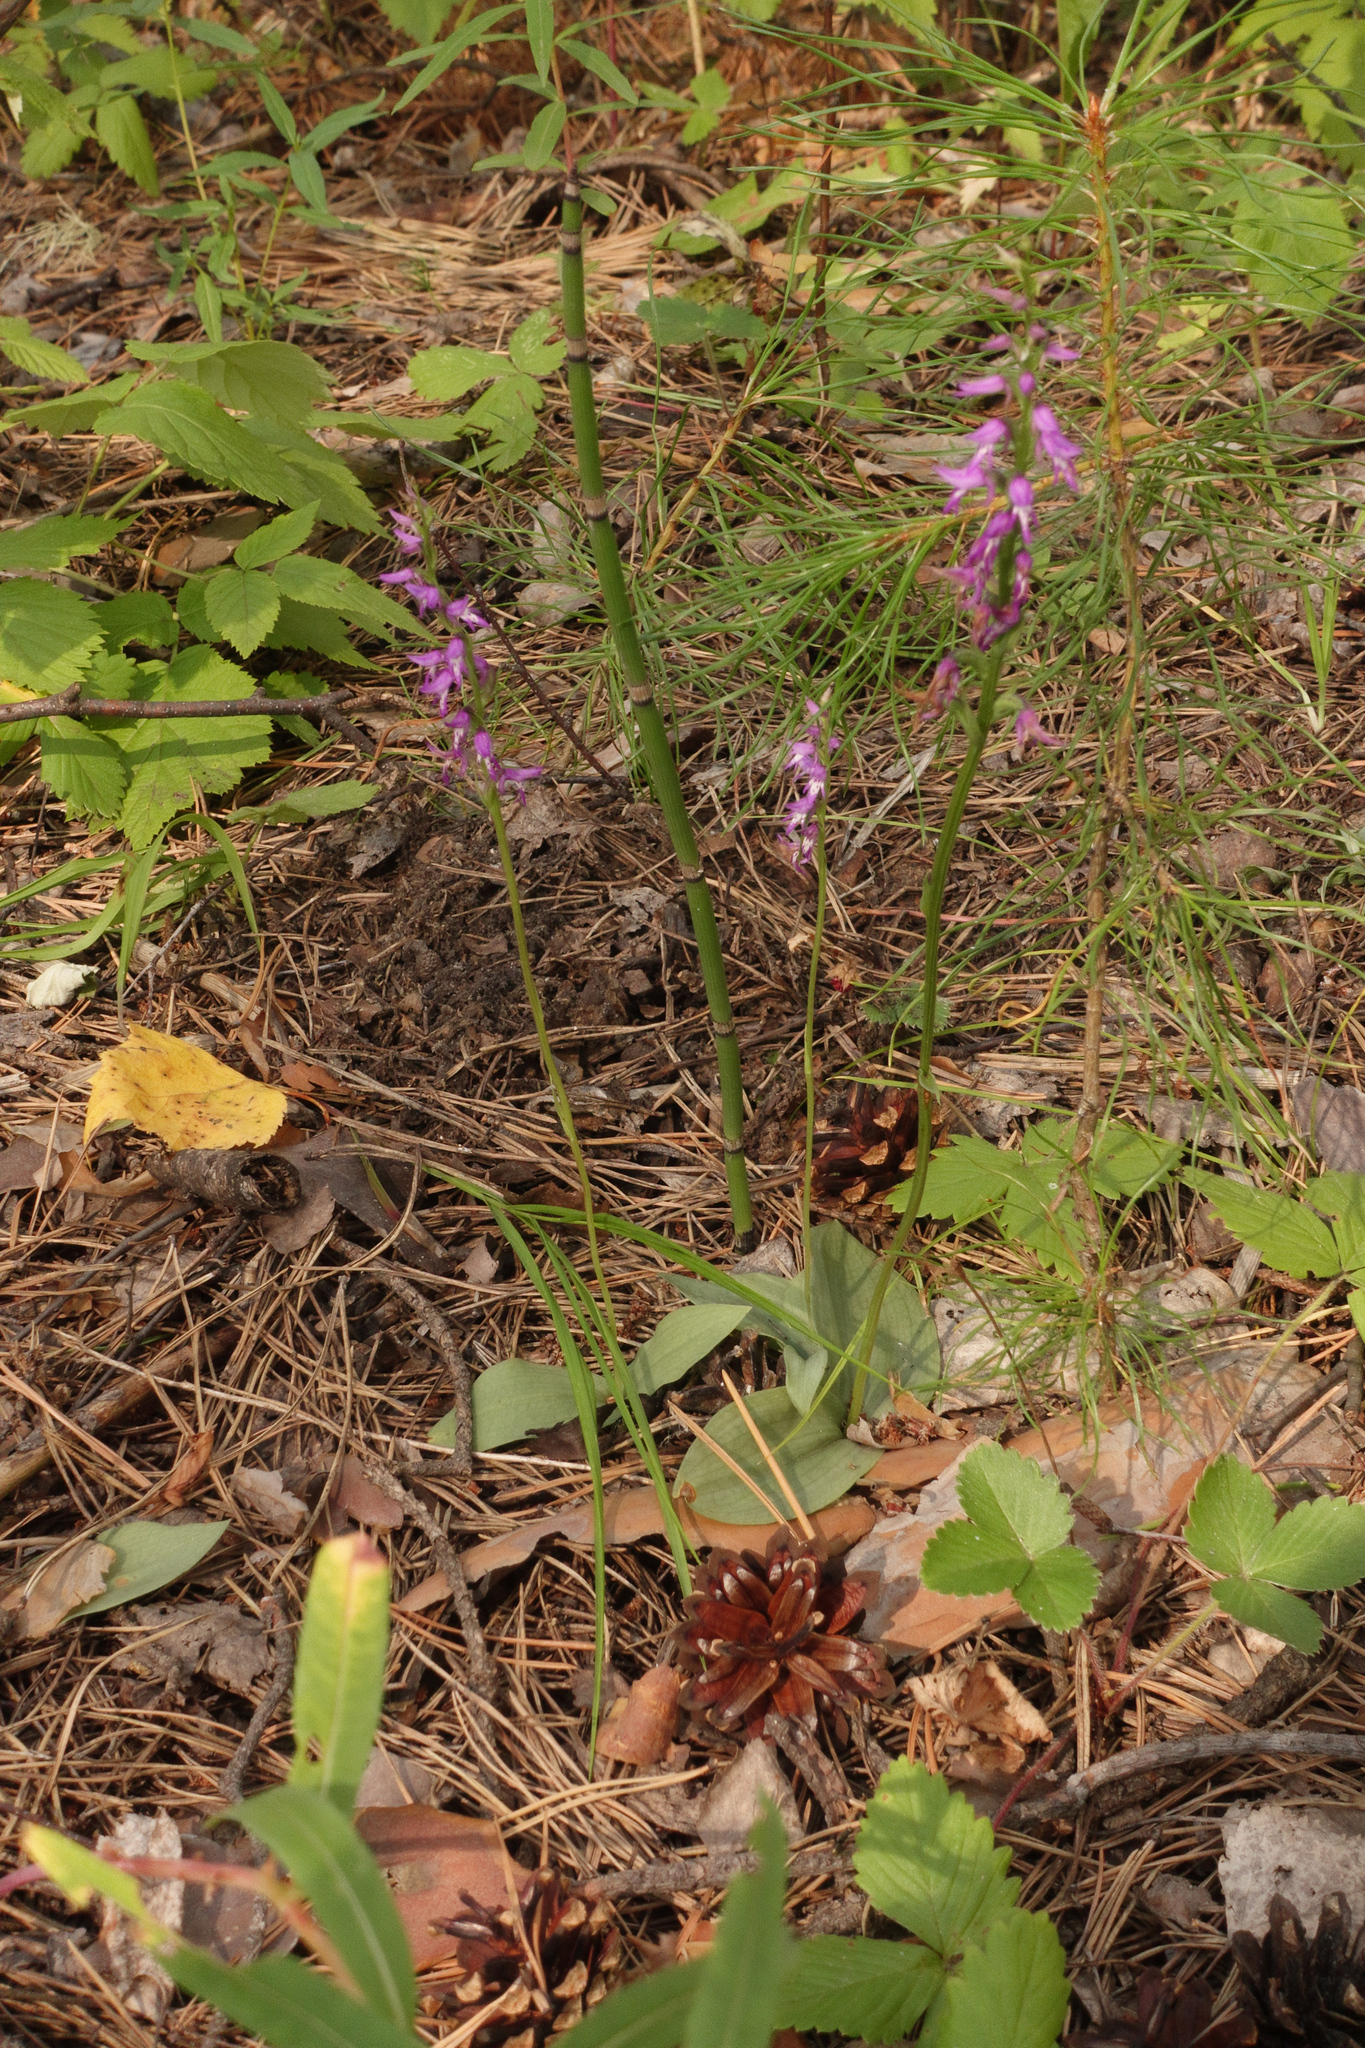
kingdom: Plantae
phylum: Tracheophyta
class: Liliopsida
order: Asparagales
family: Orchidaceae
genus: Hemipilia
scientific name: Hemipilia cucullata
